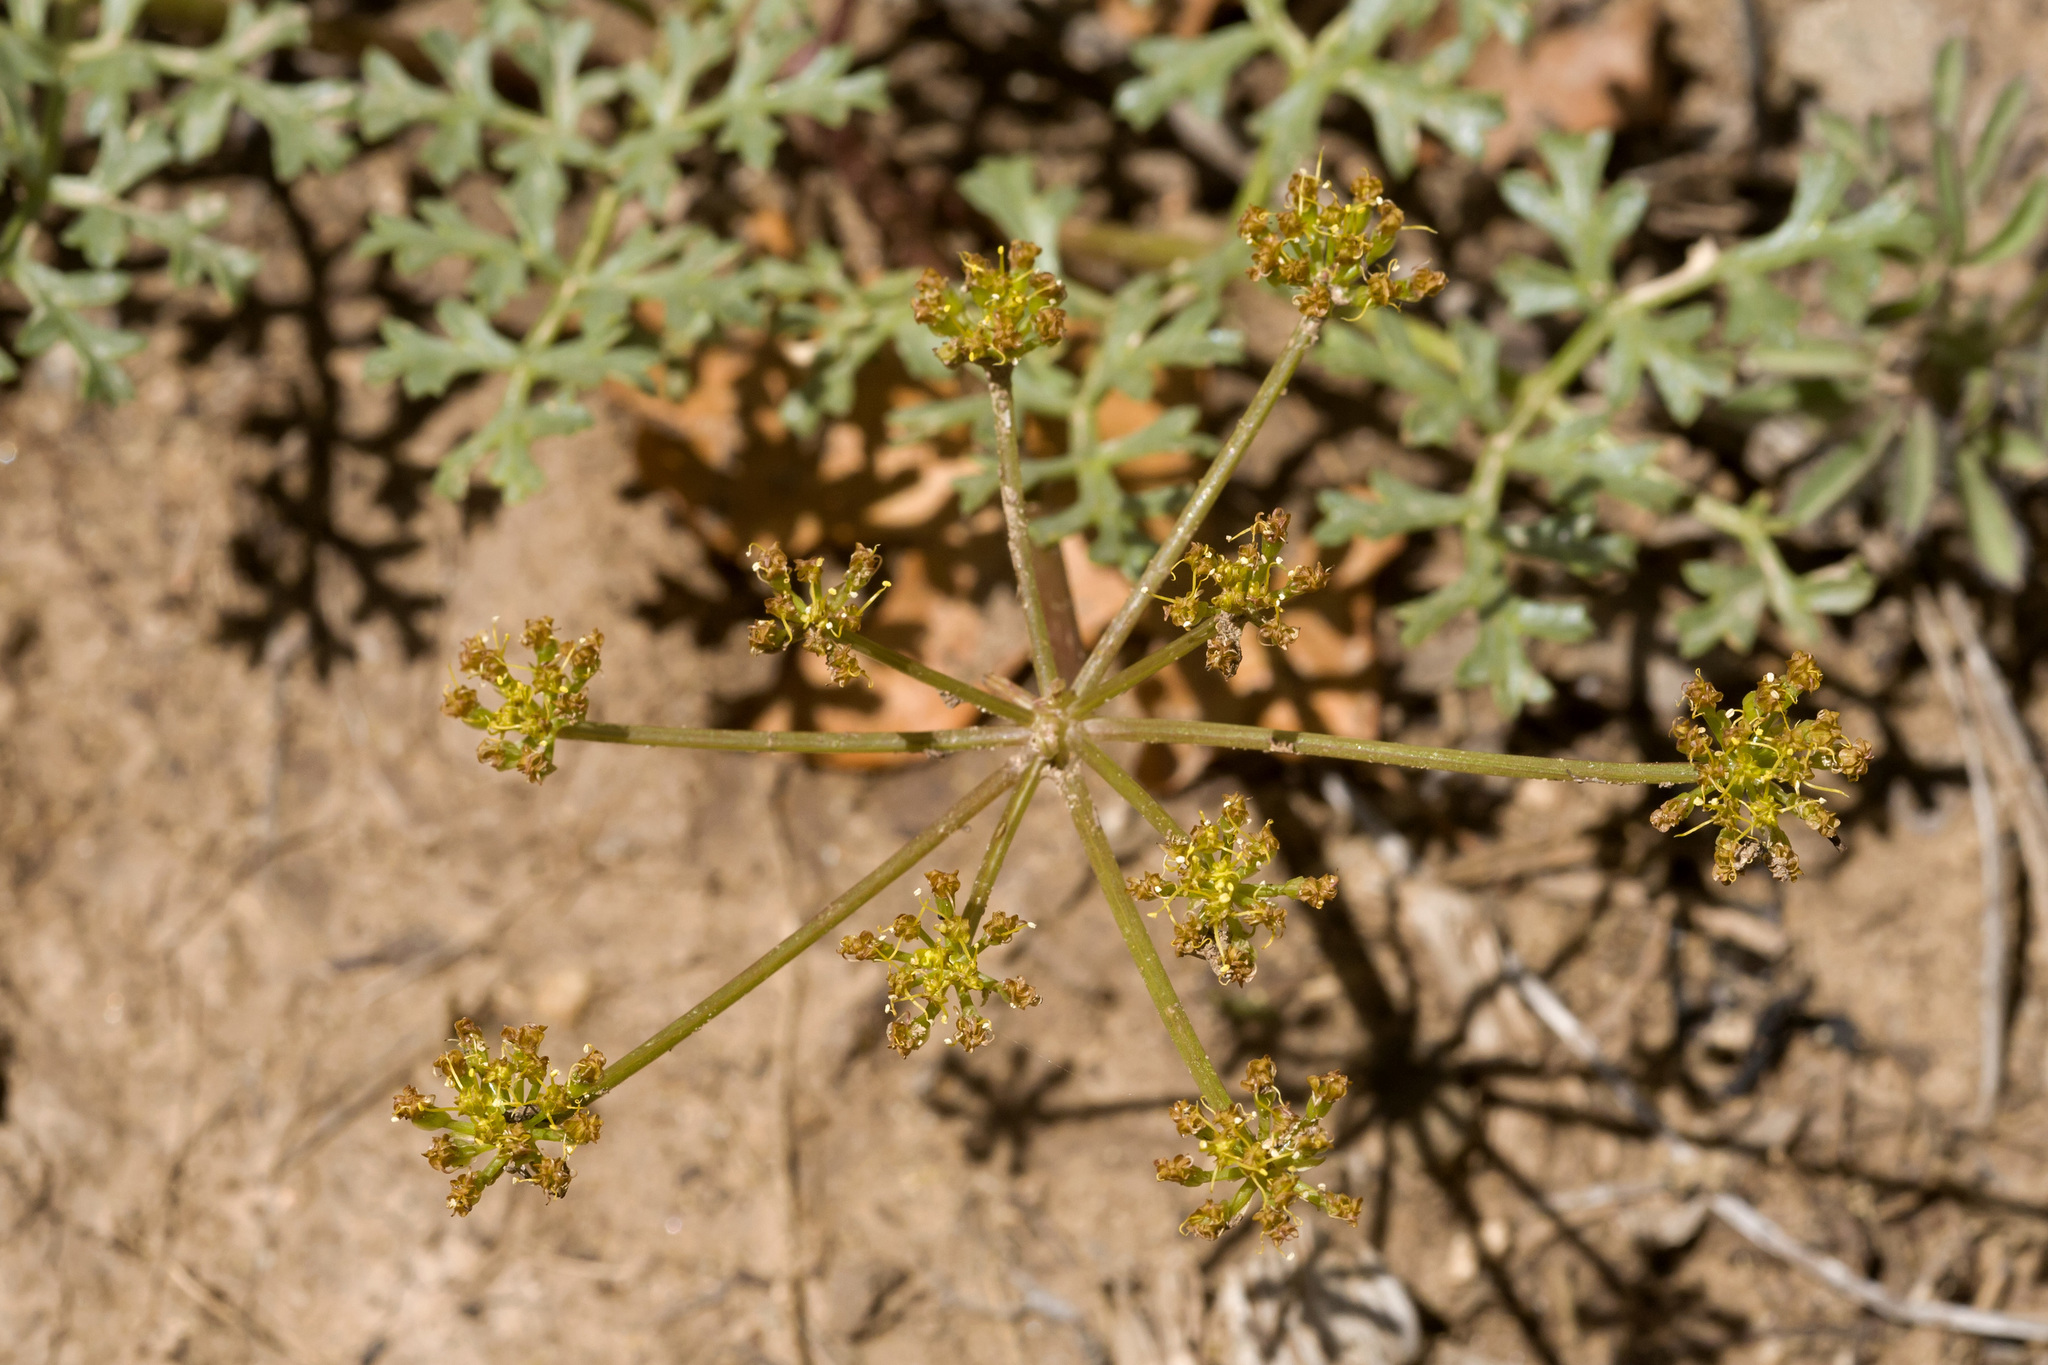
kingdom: Plantae
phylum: Tracheophyta
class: Magnoliopsida
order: Apiales
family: Apiaceae
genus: Aulospermum
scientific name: Aulospermum purpureum
